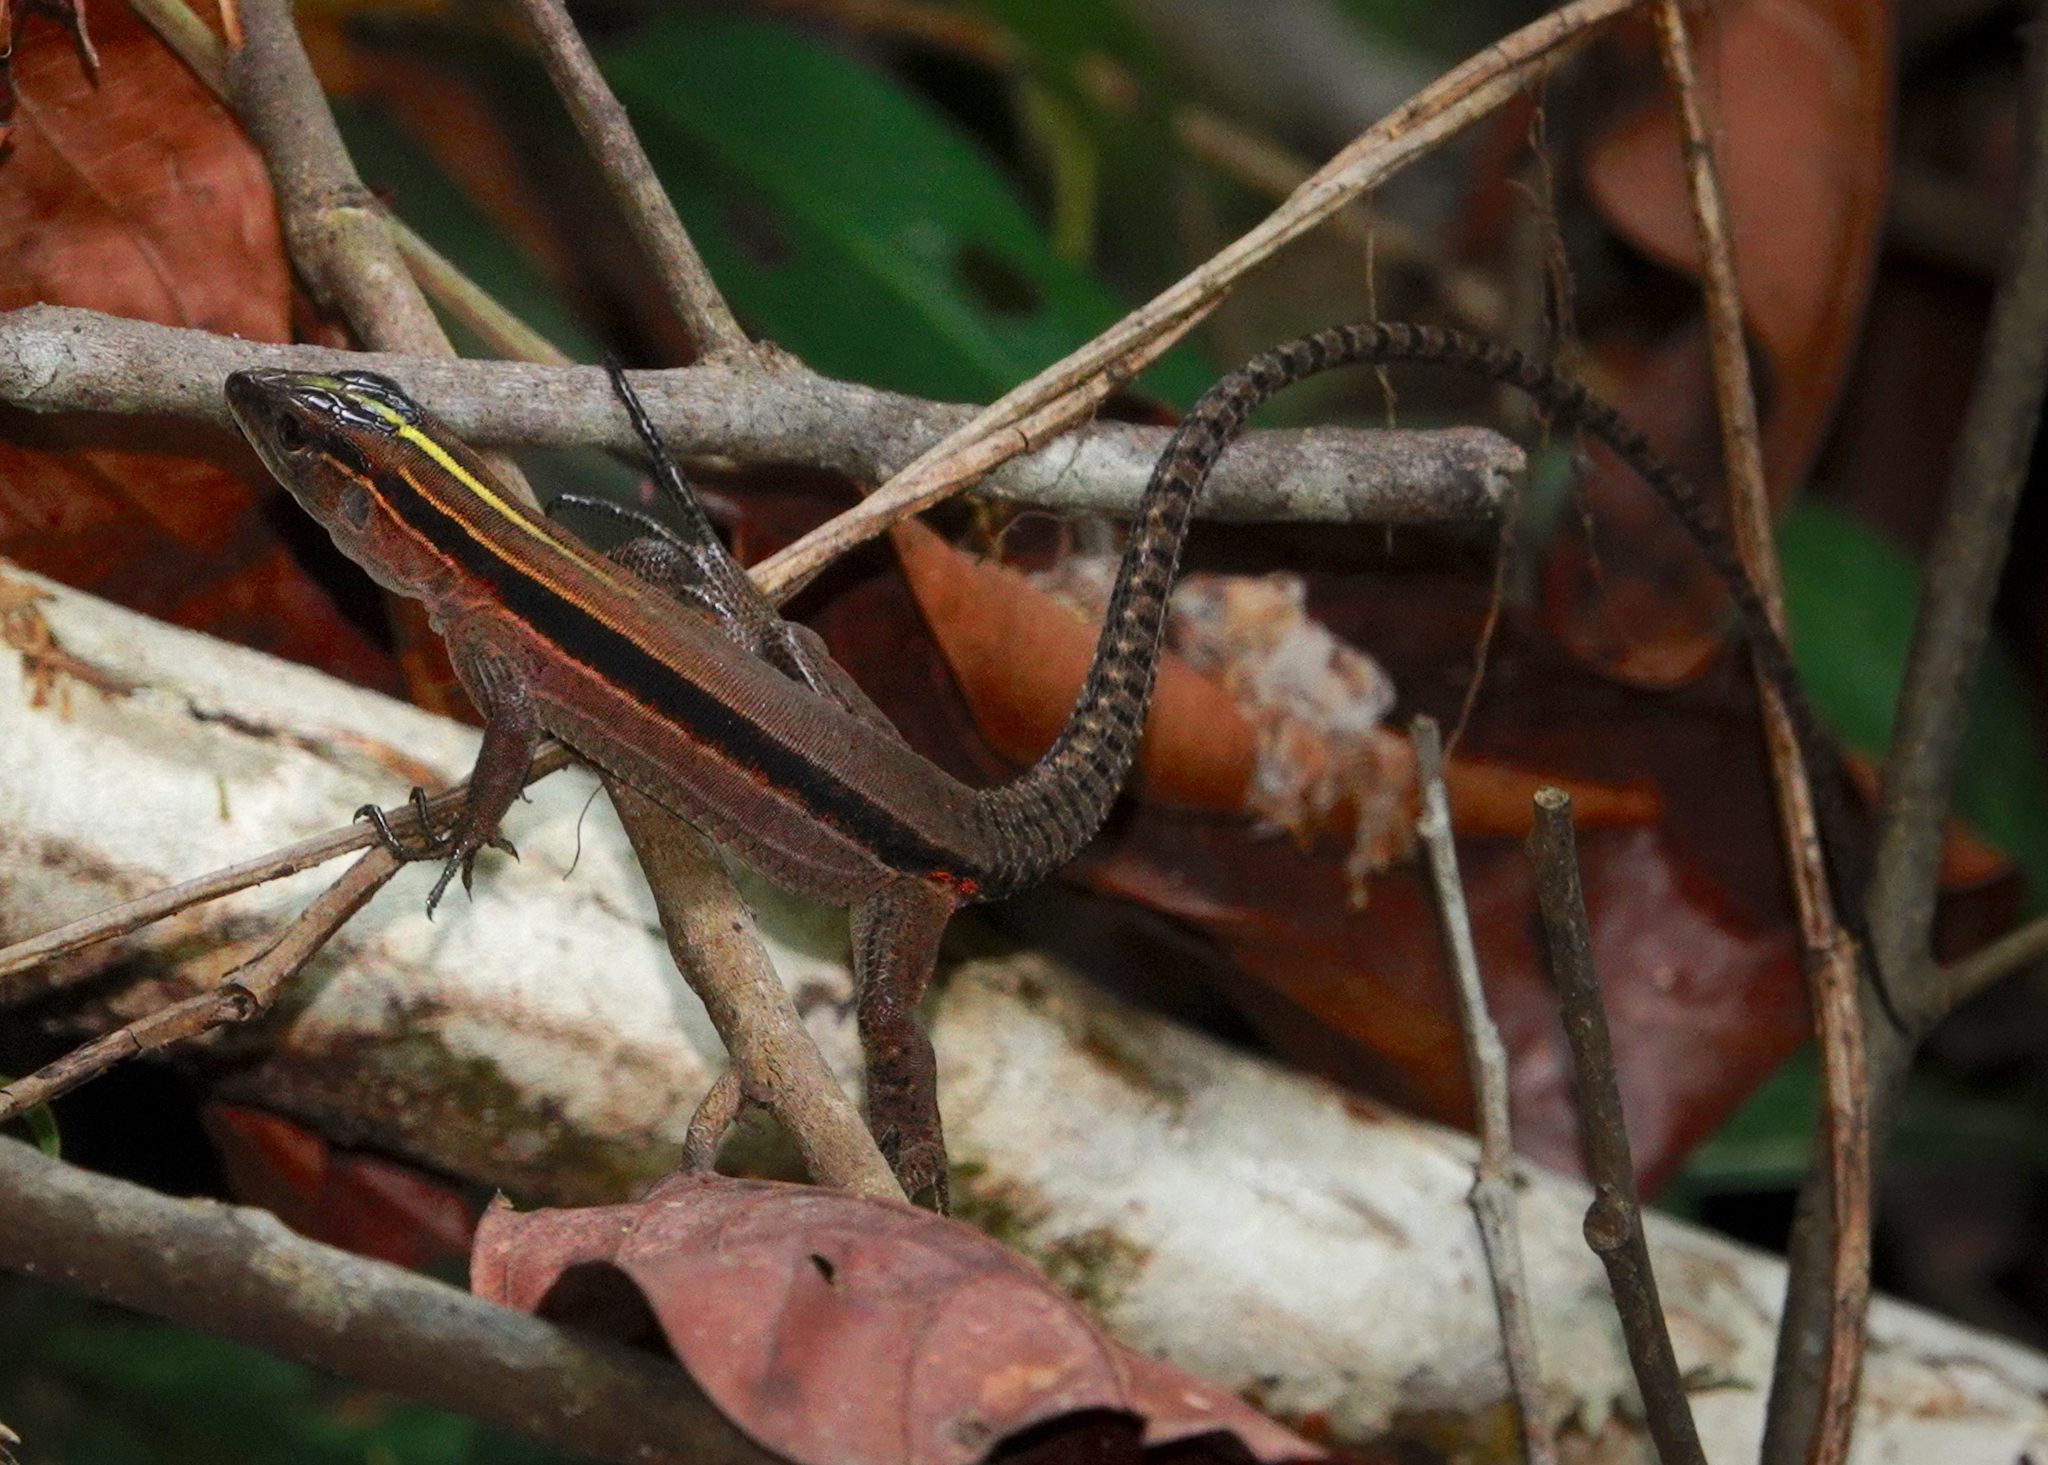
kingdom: Animalia
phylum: Chordata
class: Squamata
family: Teiidae
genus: Kentropyx
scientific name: Kentropyx altamazonica
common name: Cocha whiptail
